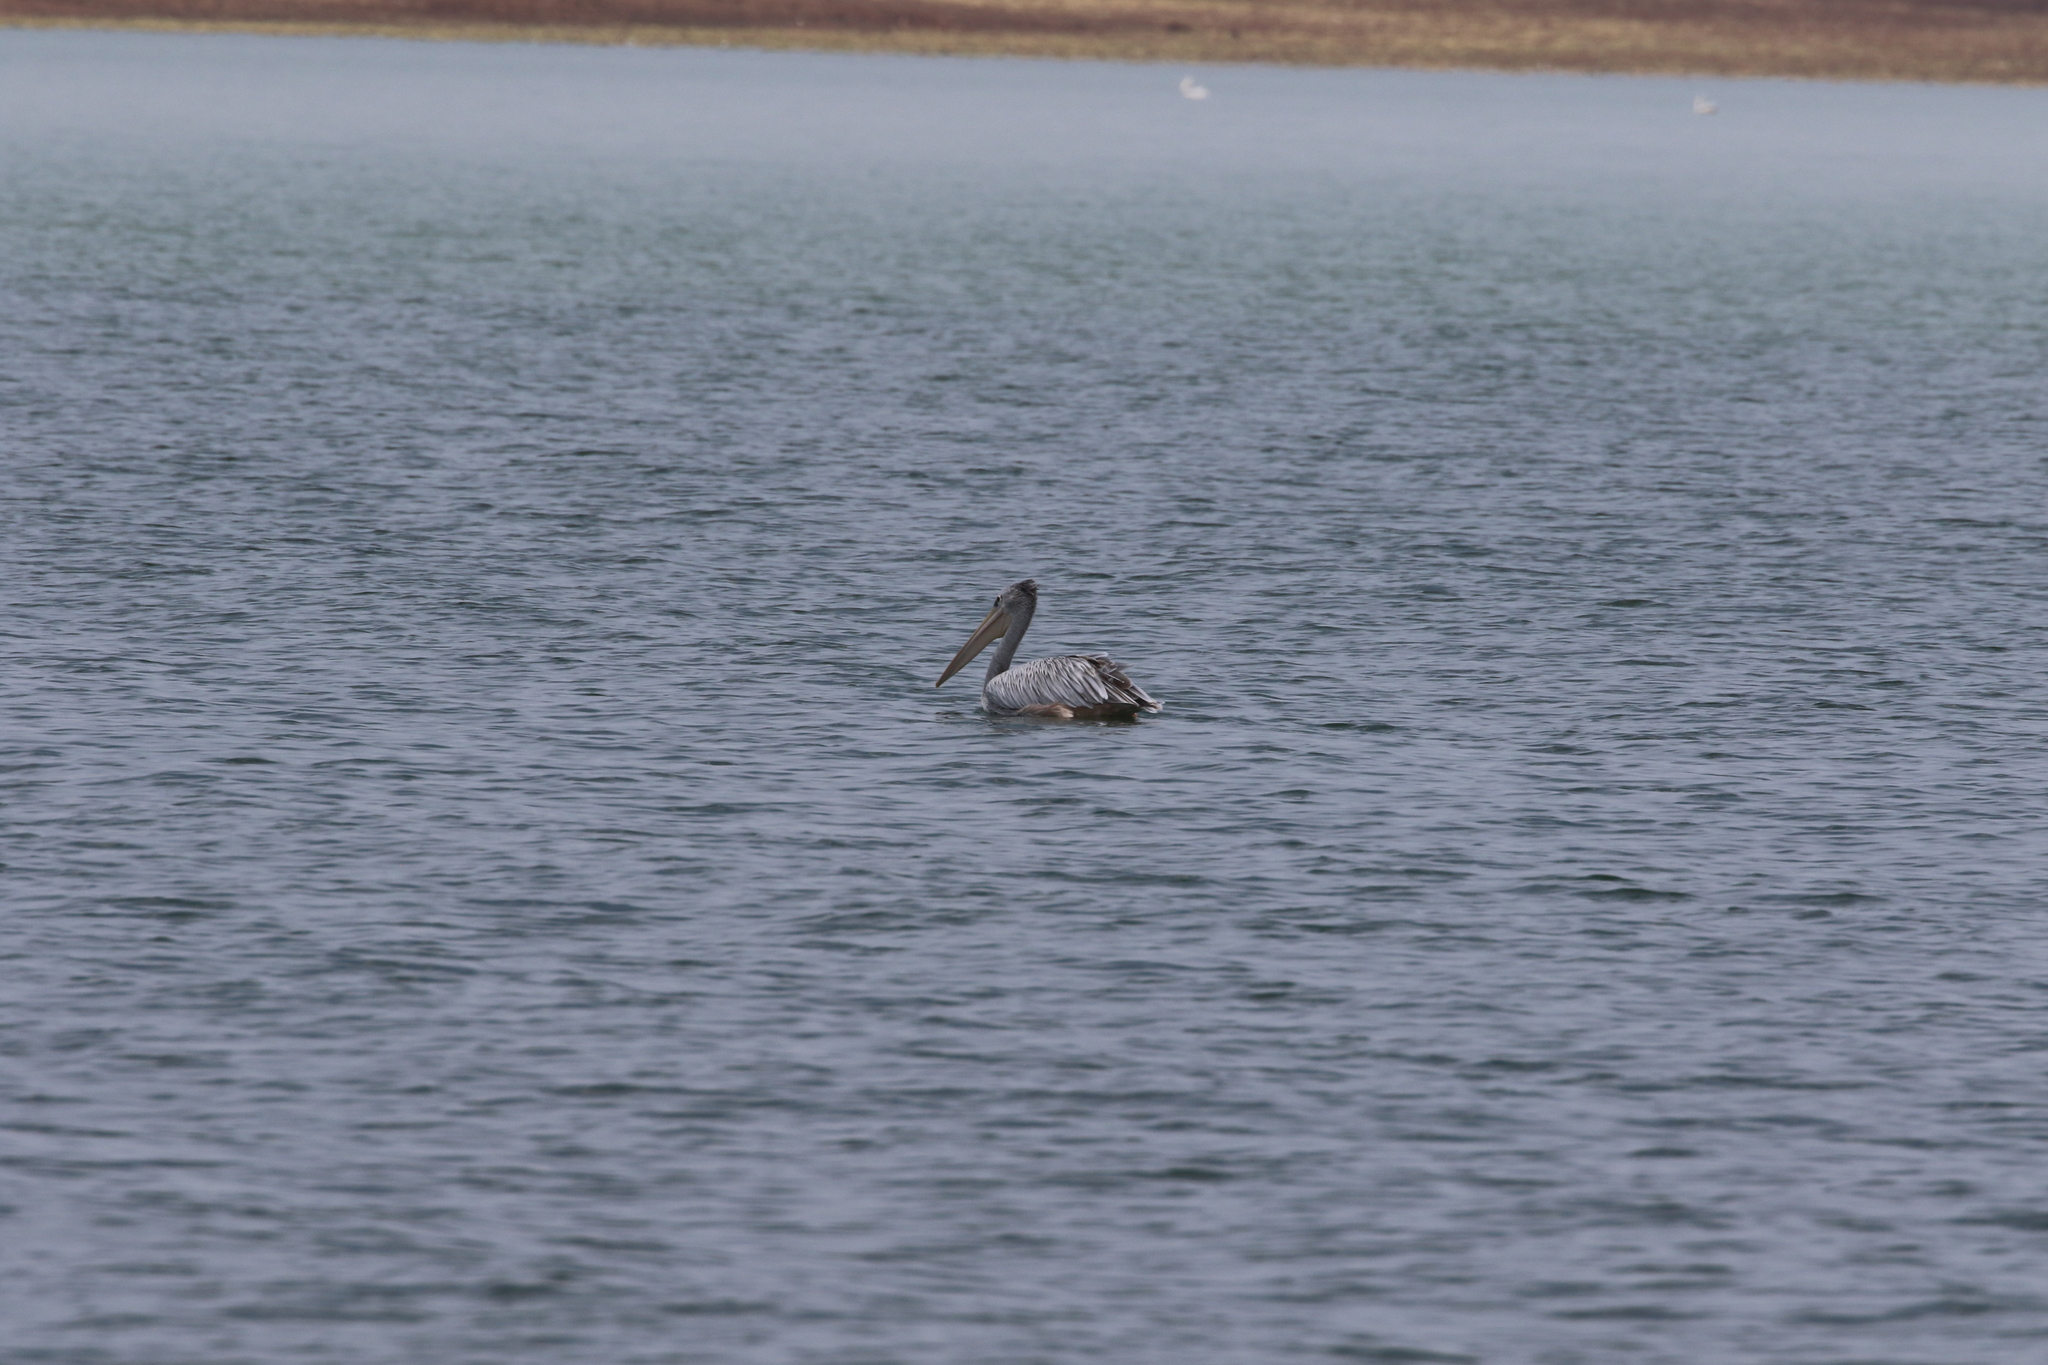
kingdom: Animalia
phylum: Chordata
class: Aves
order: Pelecaniformes
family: Pelecanidae
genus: Pelecanus
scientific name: Pelecanus rufescens
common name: Pink-backed pelican
